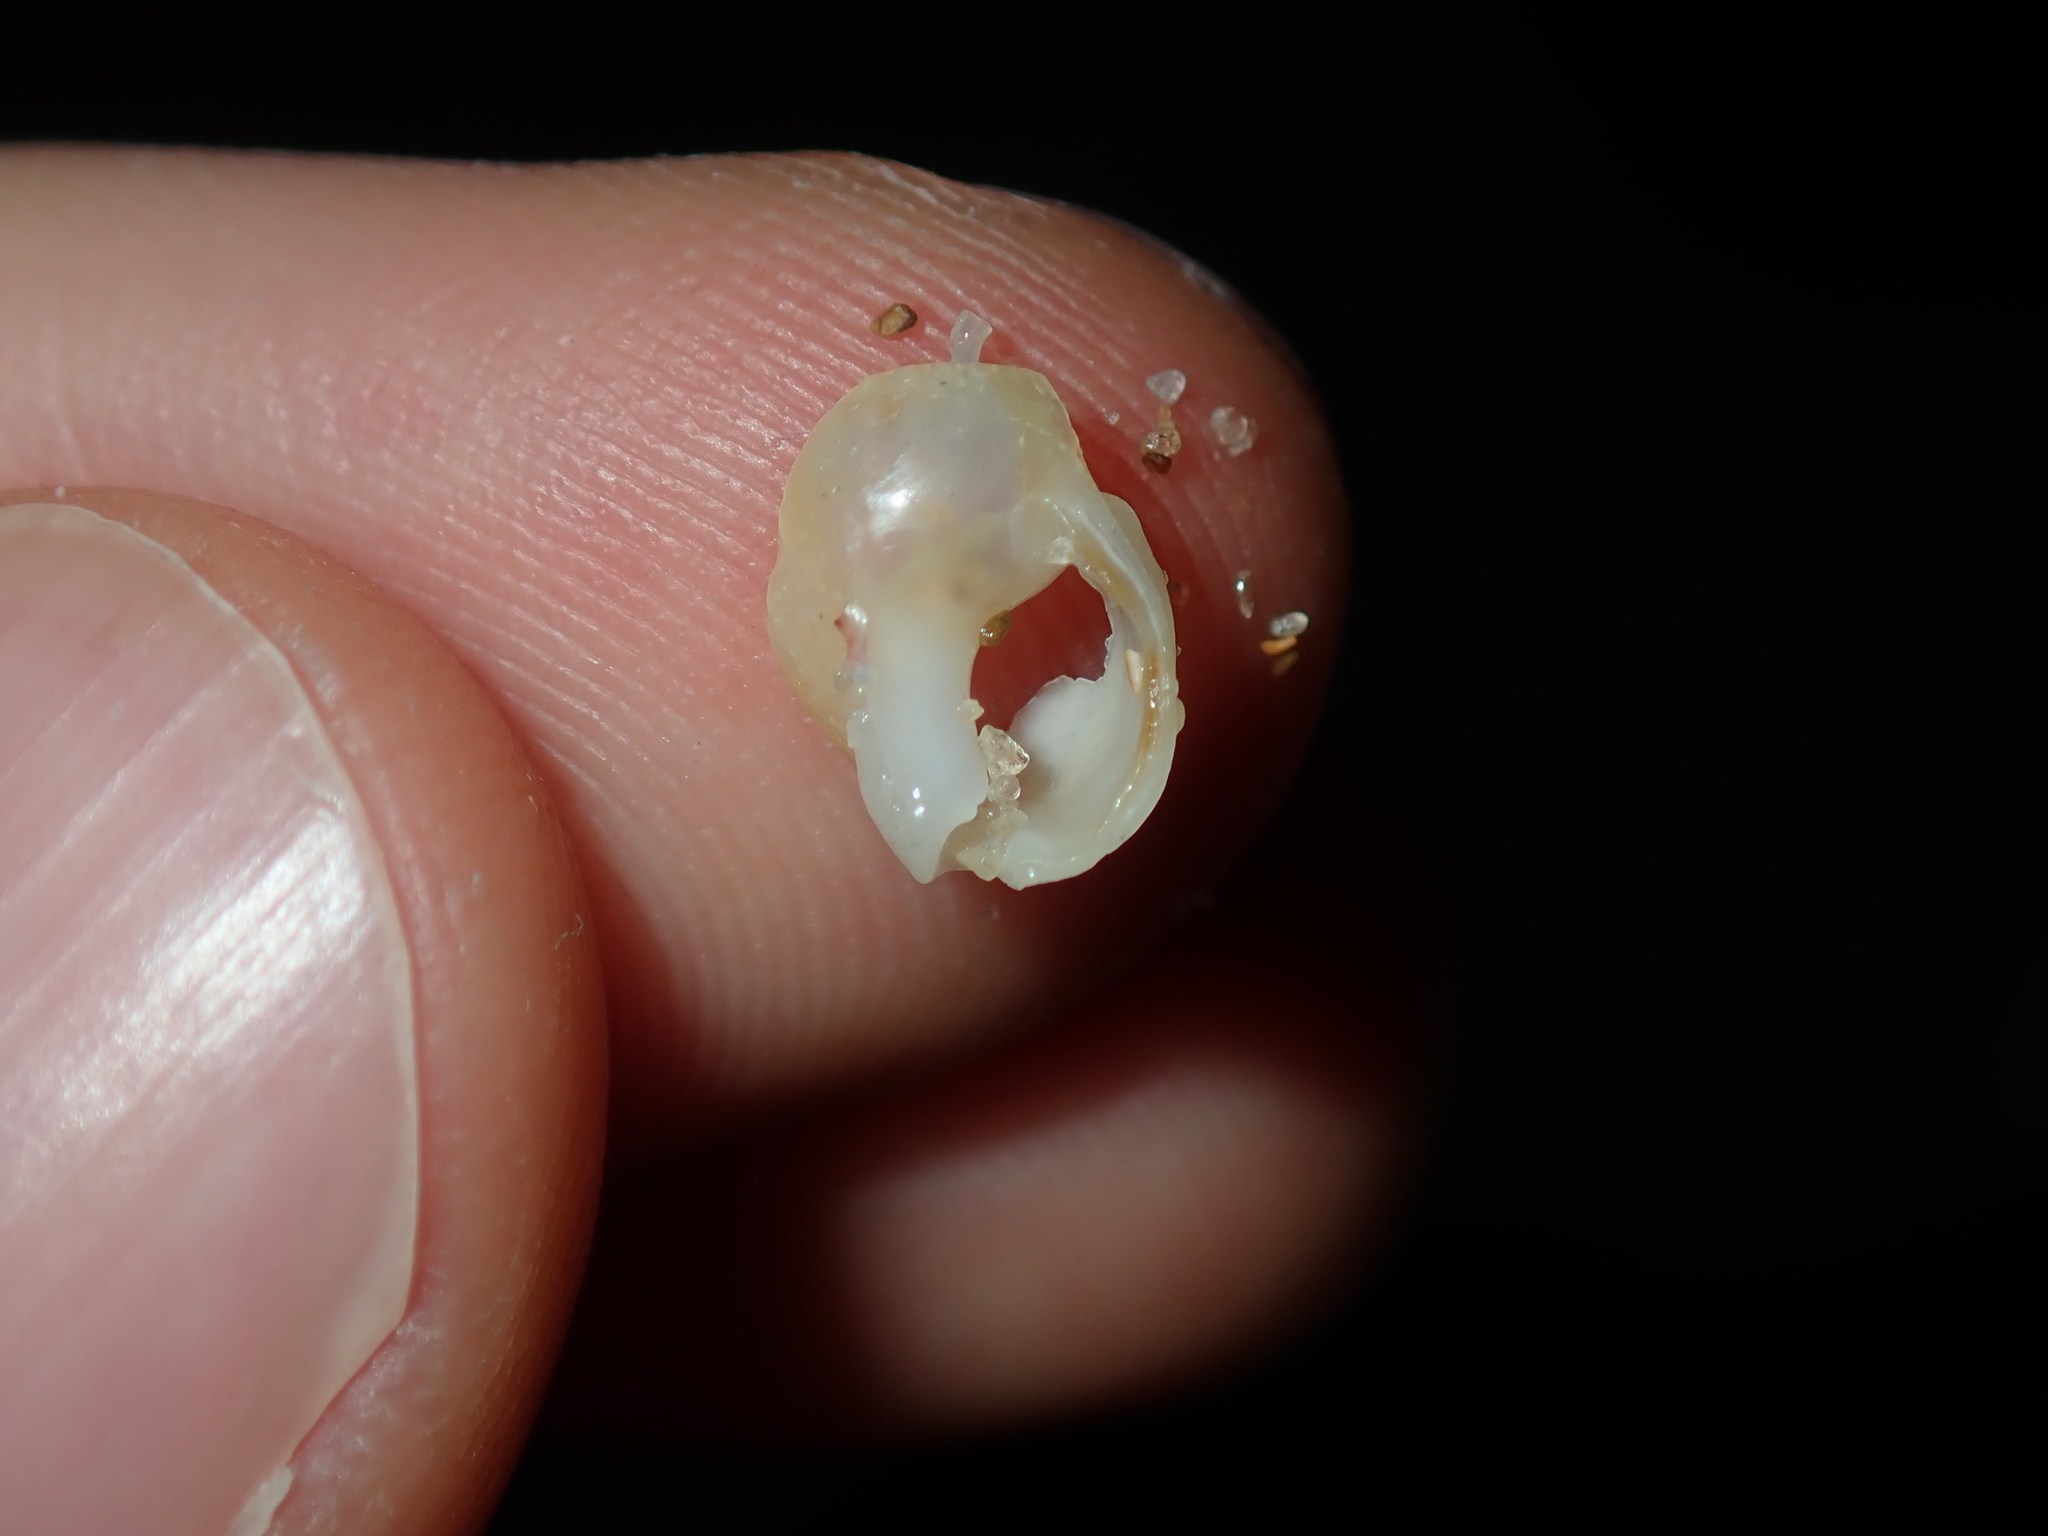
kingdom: Animalia
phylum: Mollusca
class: Gastropoda
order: Neogastropoda
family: Nassariidae
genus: Nassarius
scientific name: Nassarius nigellus
